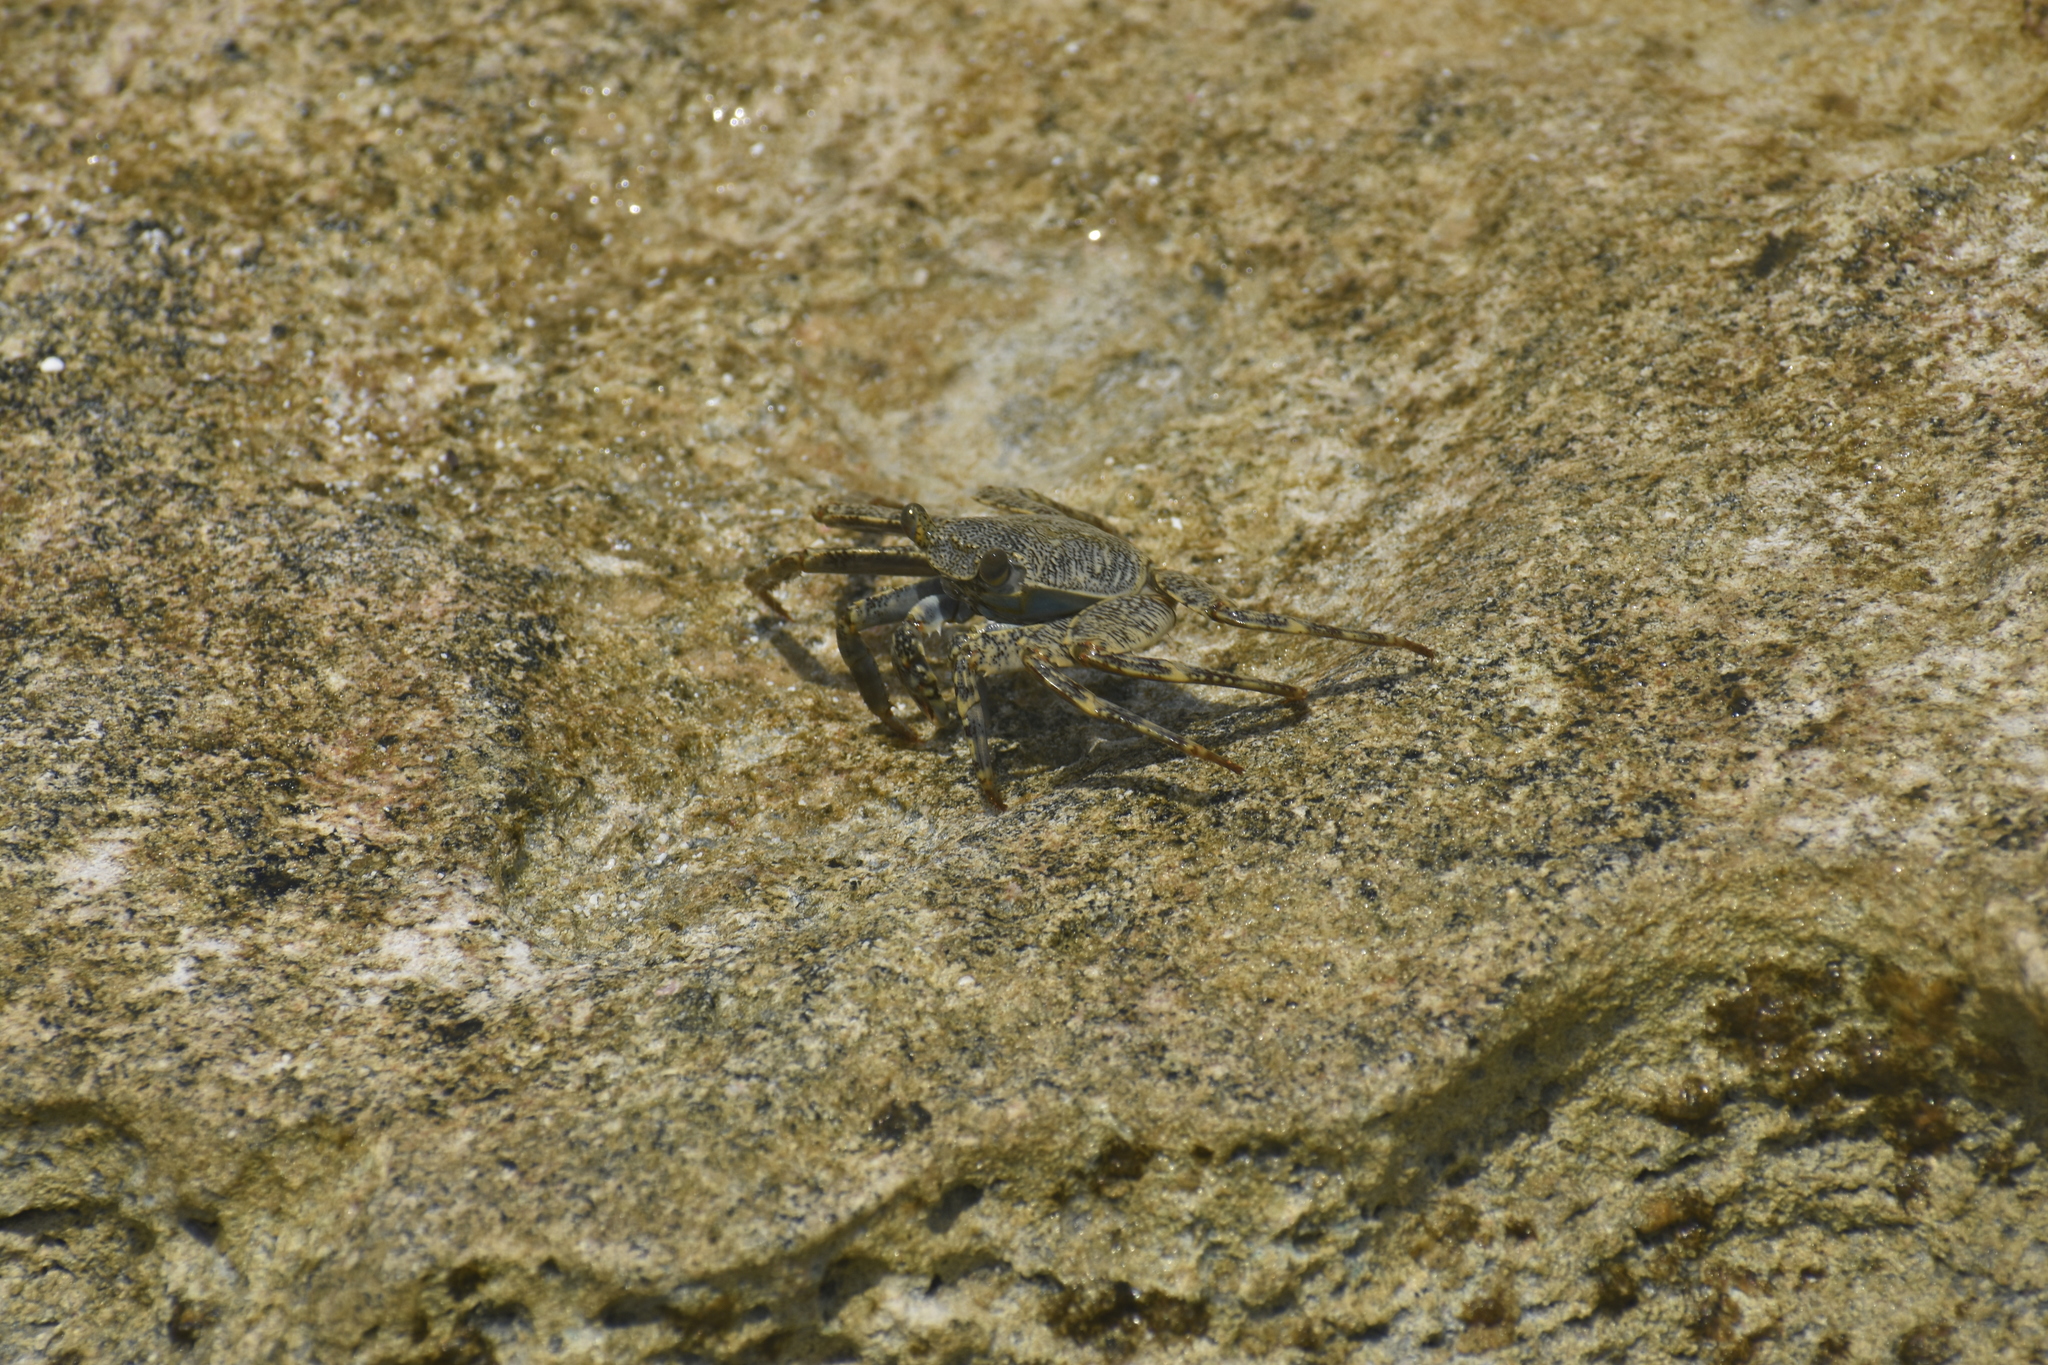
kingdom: Animalia
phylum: Arthropoda
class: Malacostraca
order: Decapoda
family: Grapsidae
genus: Grapsus
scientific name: Grapsus grapsus
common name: Sally lightfoot
